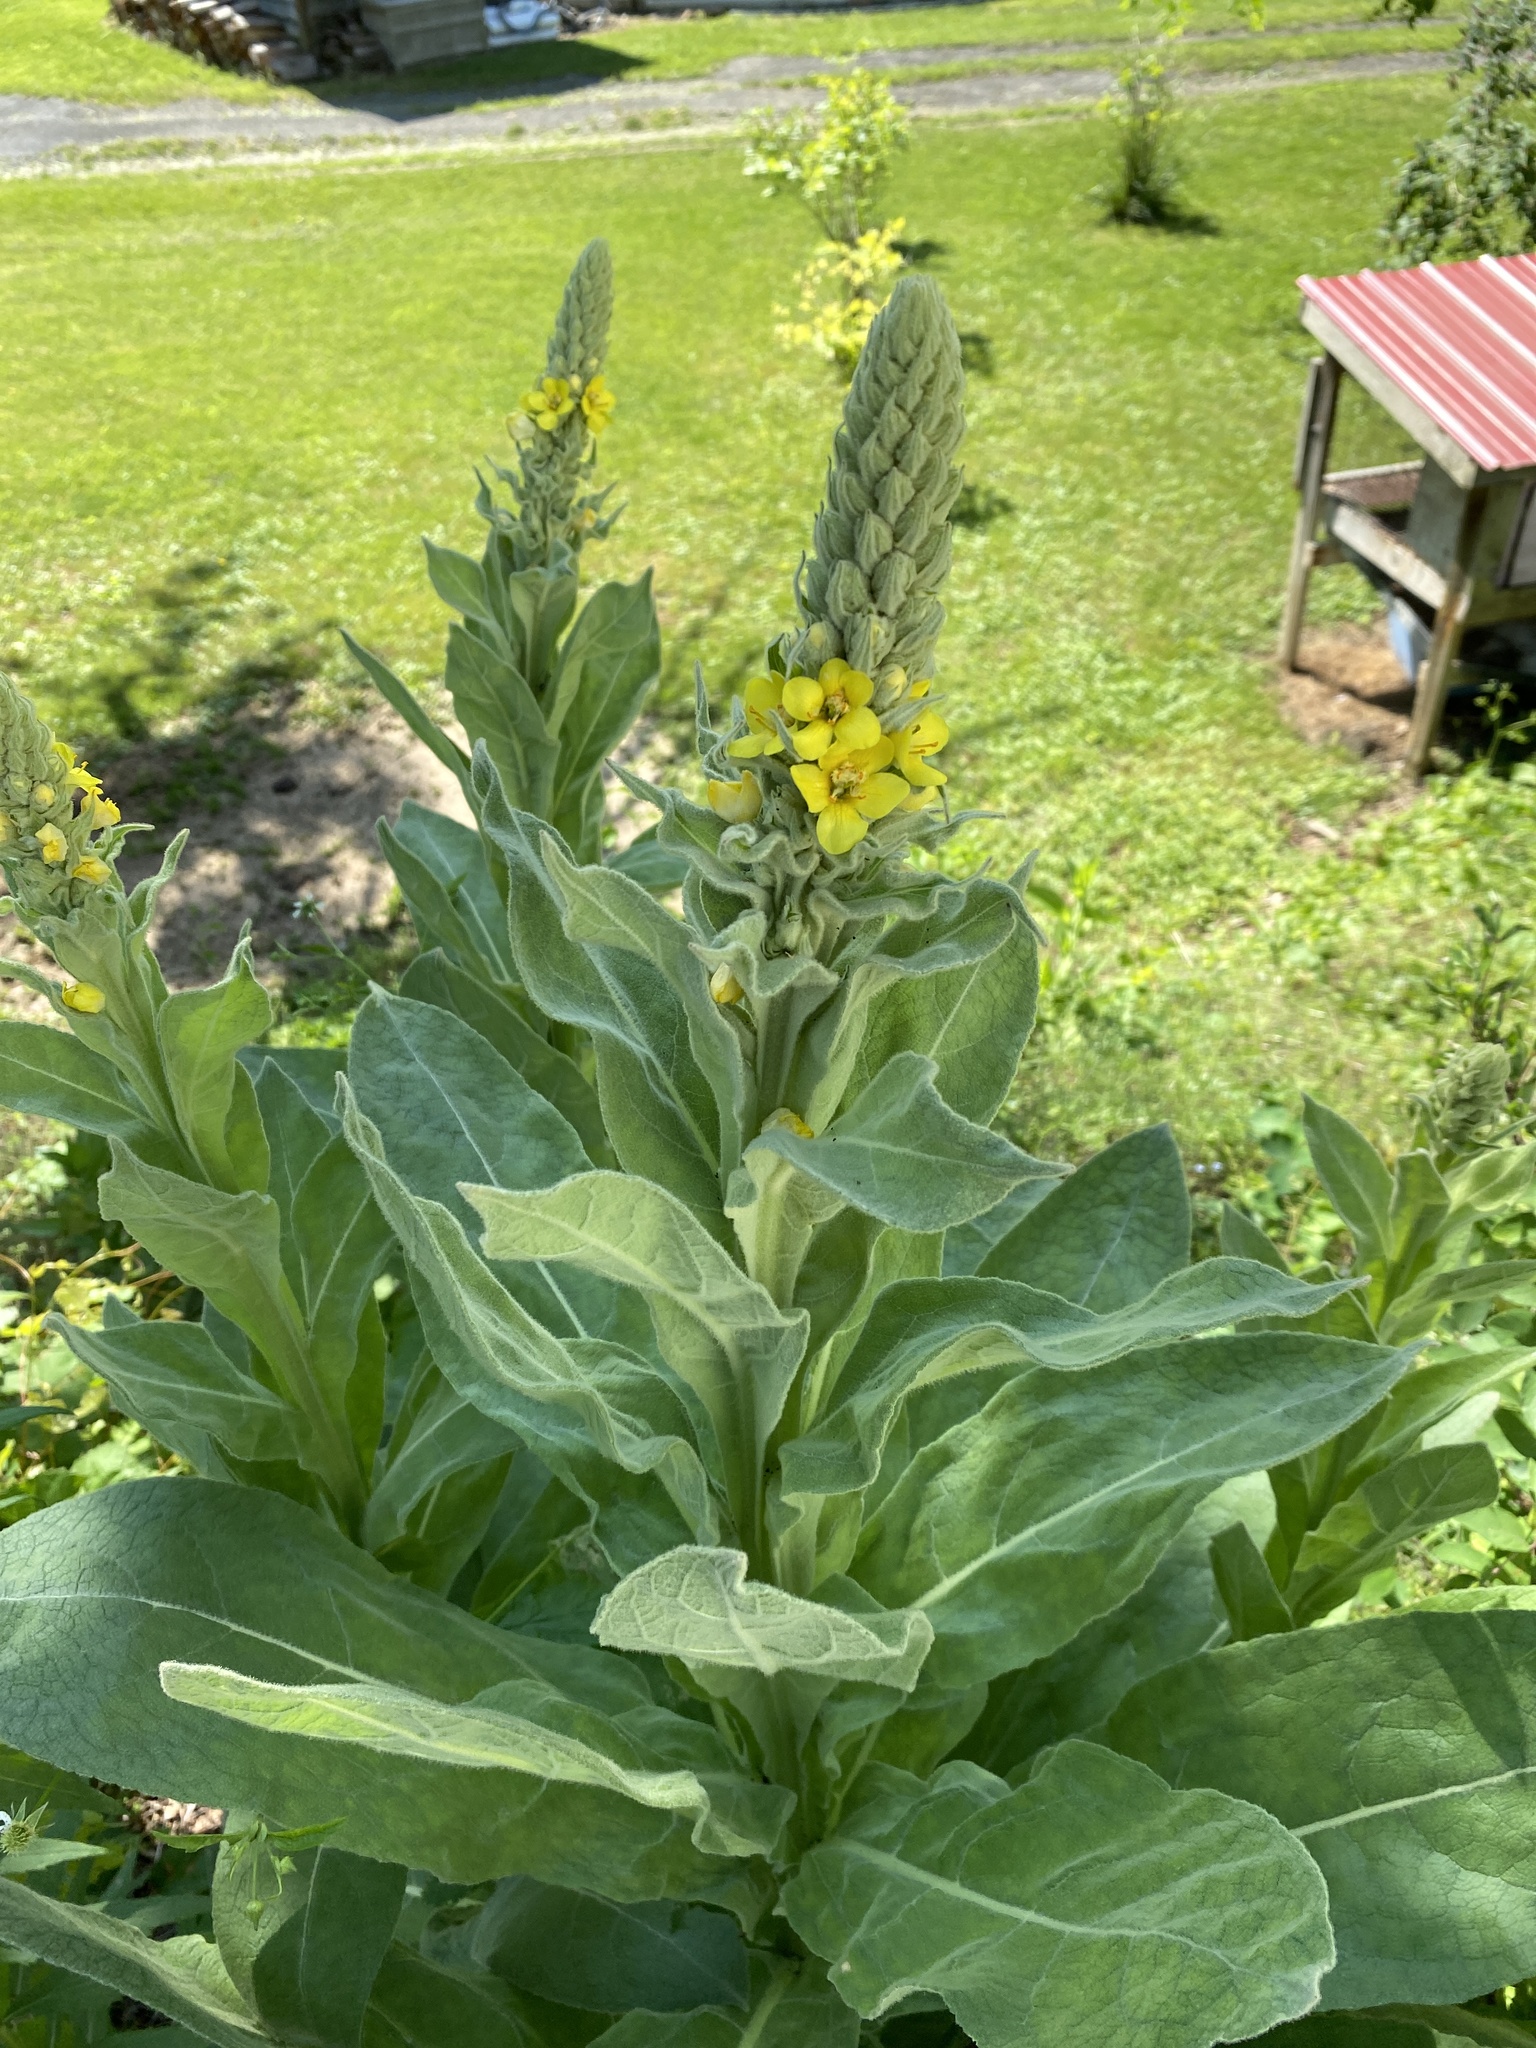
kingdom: Plantae
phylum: Tracheophyta
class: Magnoliopsida
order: Lamiales
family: Scrophulariaceae
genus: Verbascum
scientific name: Verbascum thapsus
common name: Common mullein
